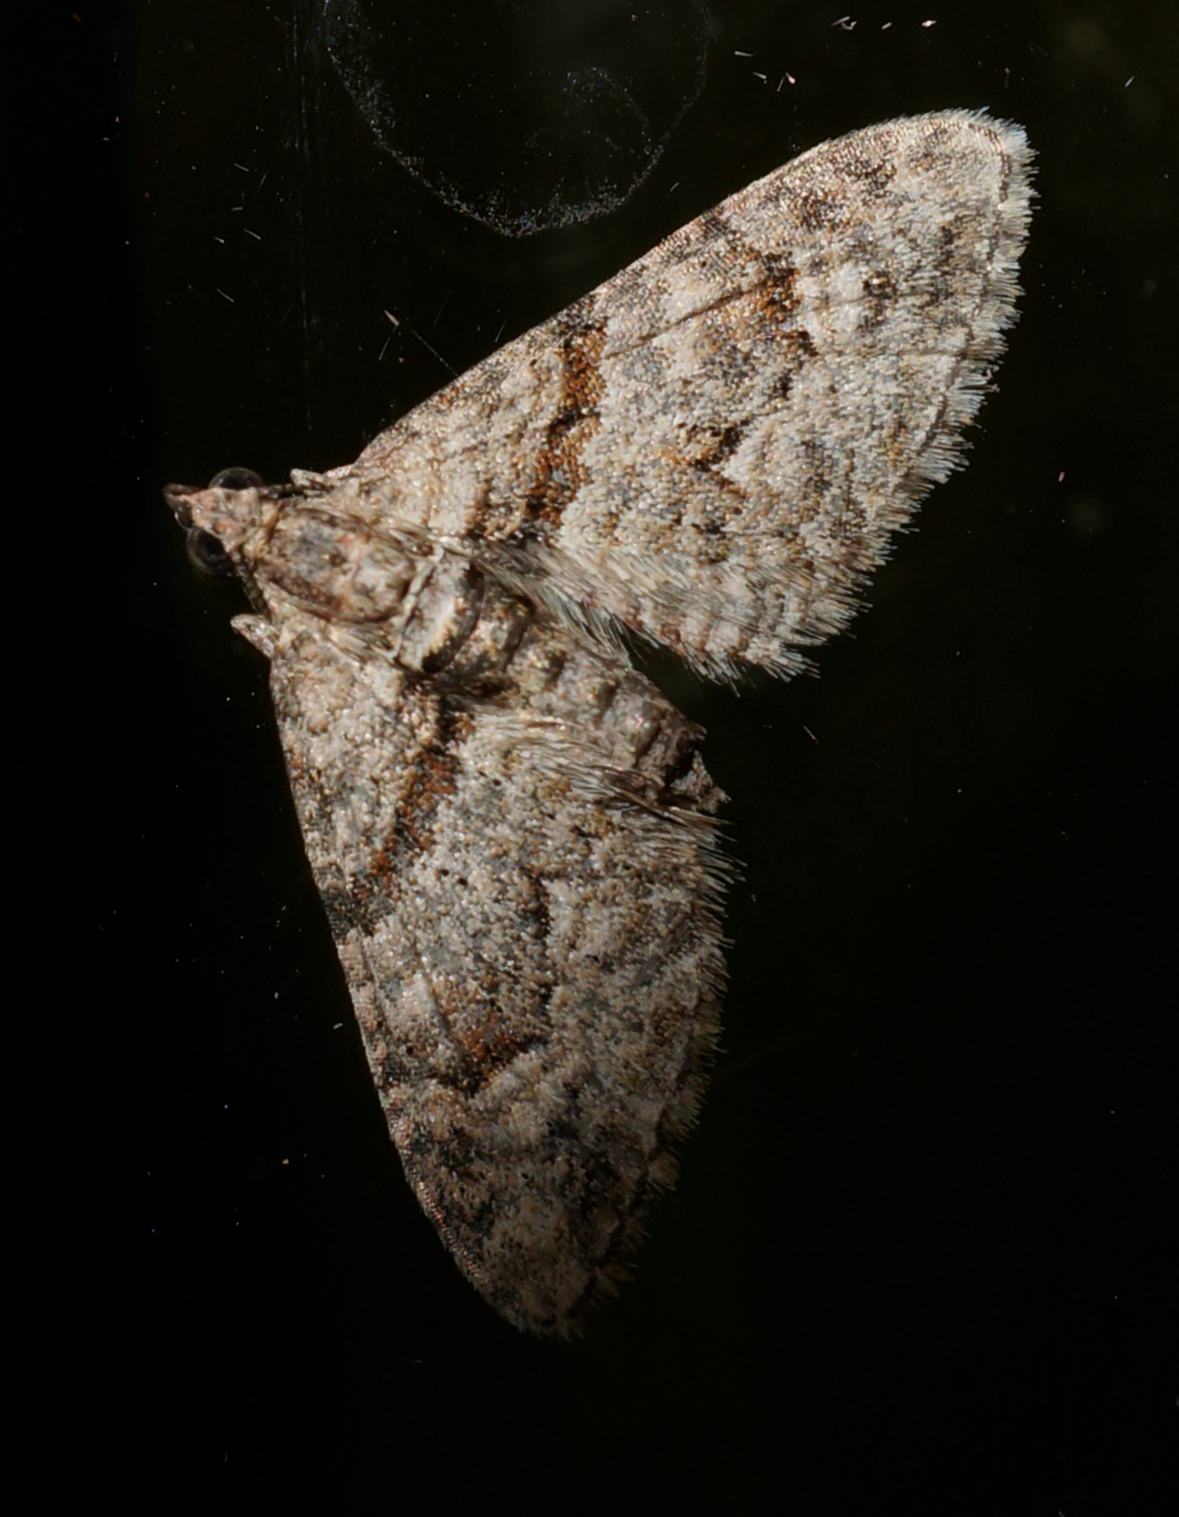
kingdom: Animalia
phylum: Arthropoda
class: Insecta
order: Lepidoptera
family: Geometridae
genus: Phrissogonus
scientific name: Phrissogonus laticostata
